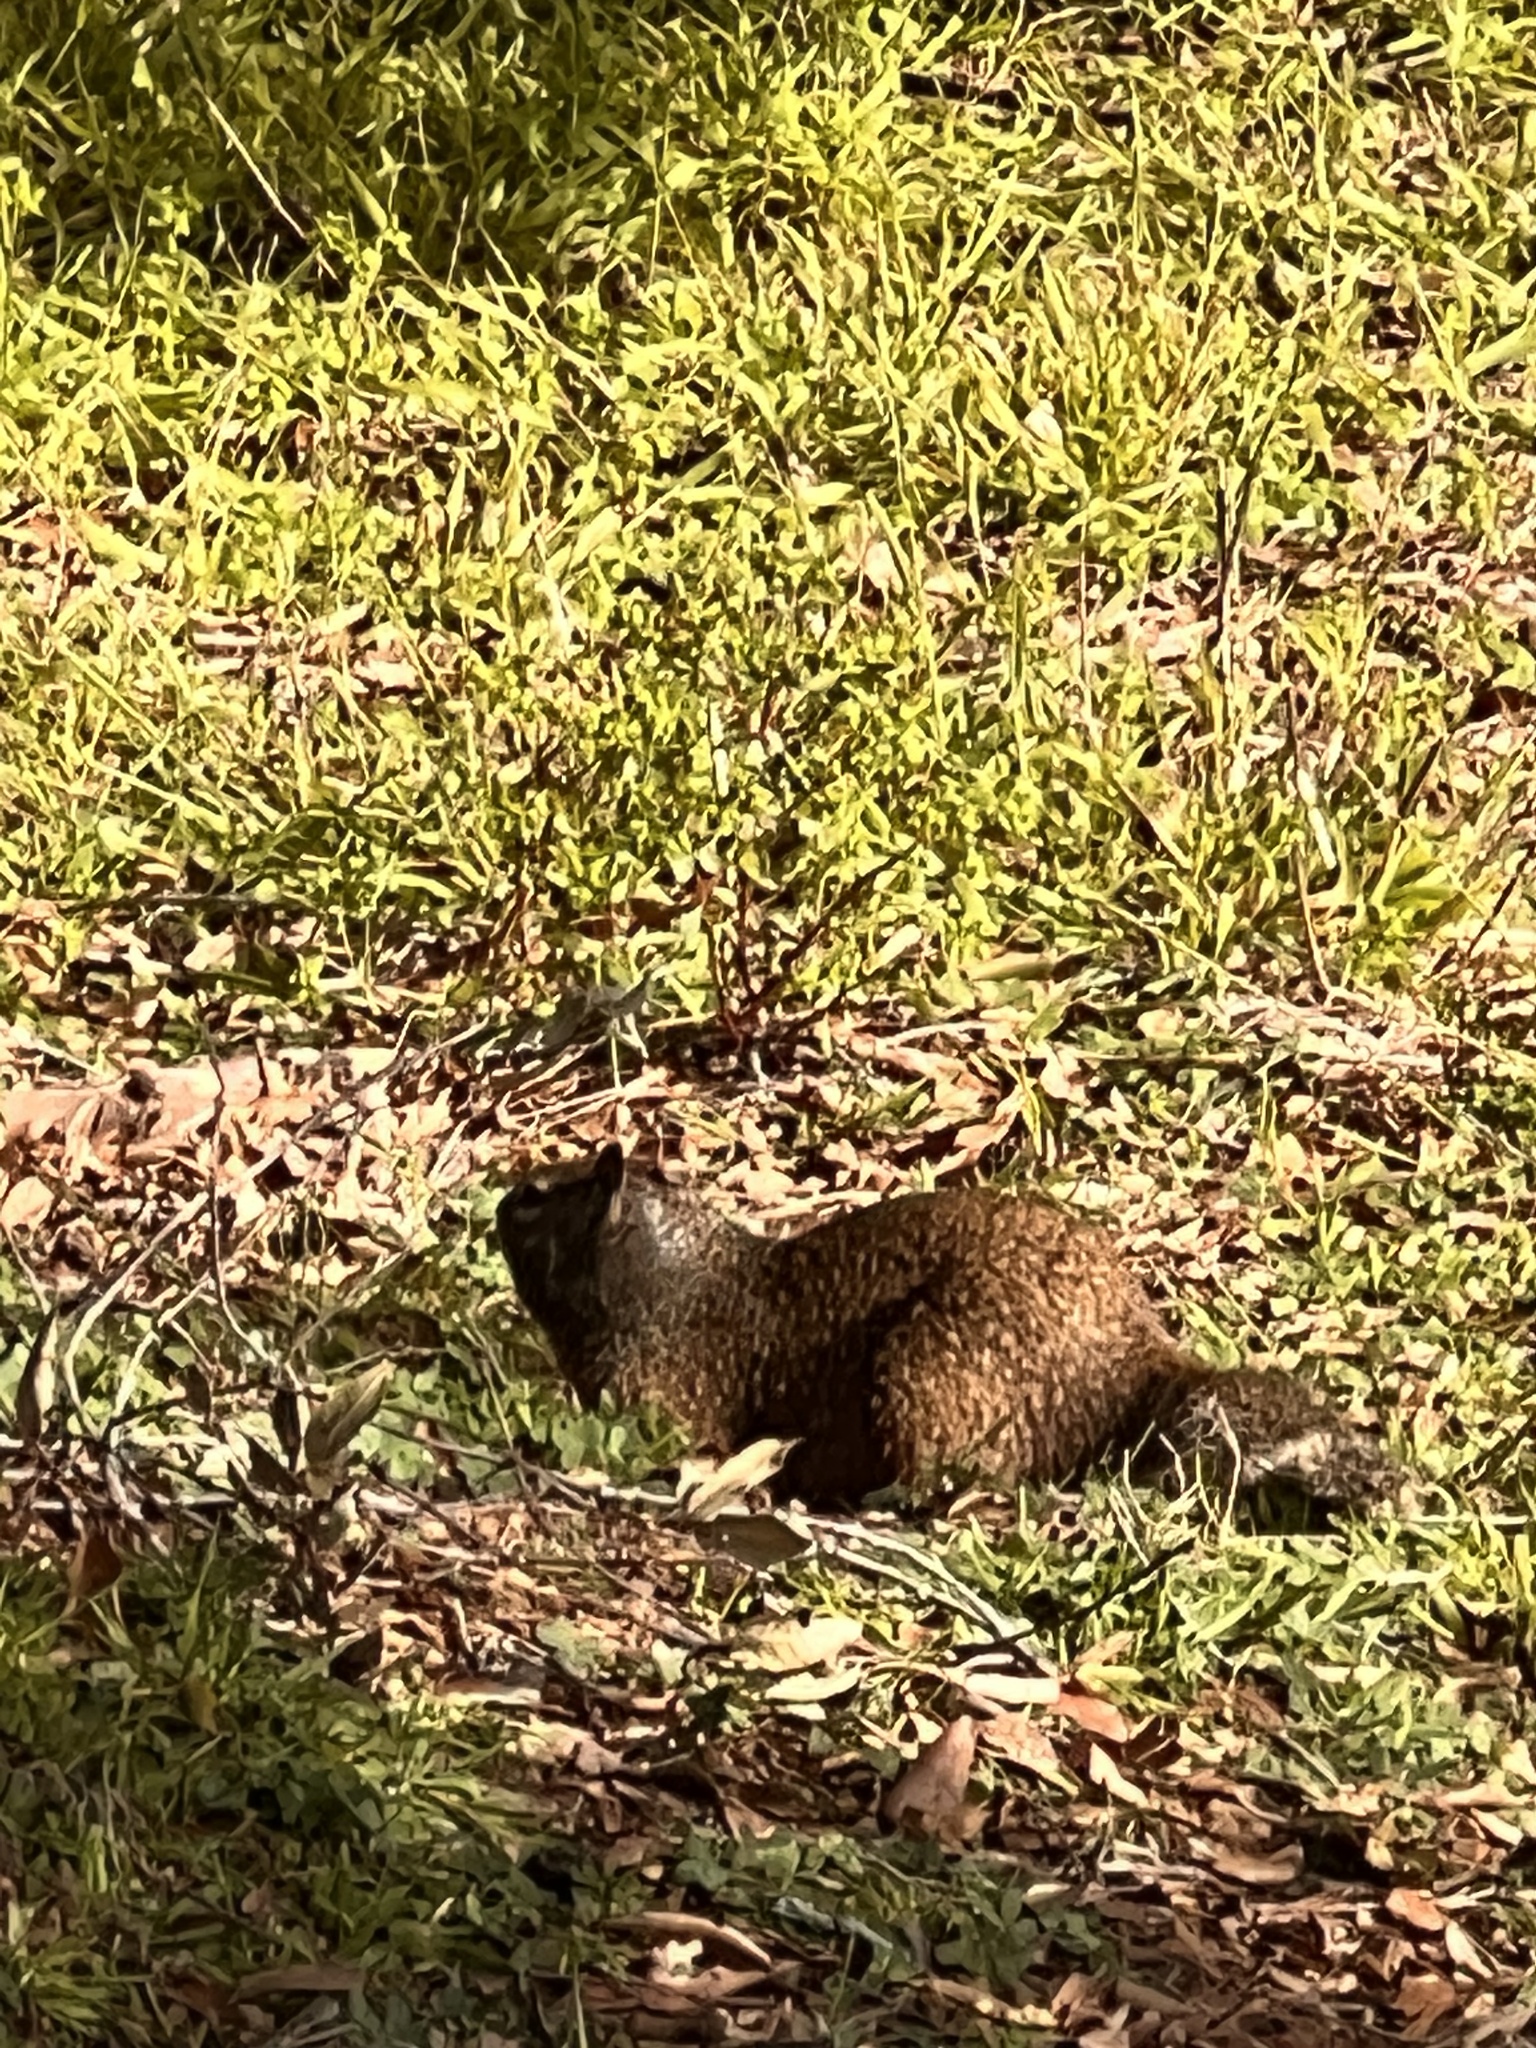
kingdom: Animalia
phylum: Chordata
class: Mammalia
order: Rodentia
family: Sciuridae
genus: Otospermophilus
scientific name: Otospermophilus beecheyi
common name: California ground squirrel
